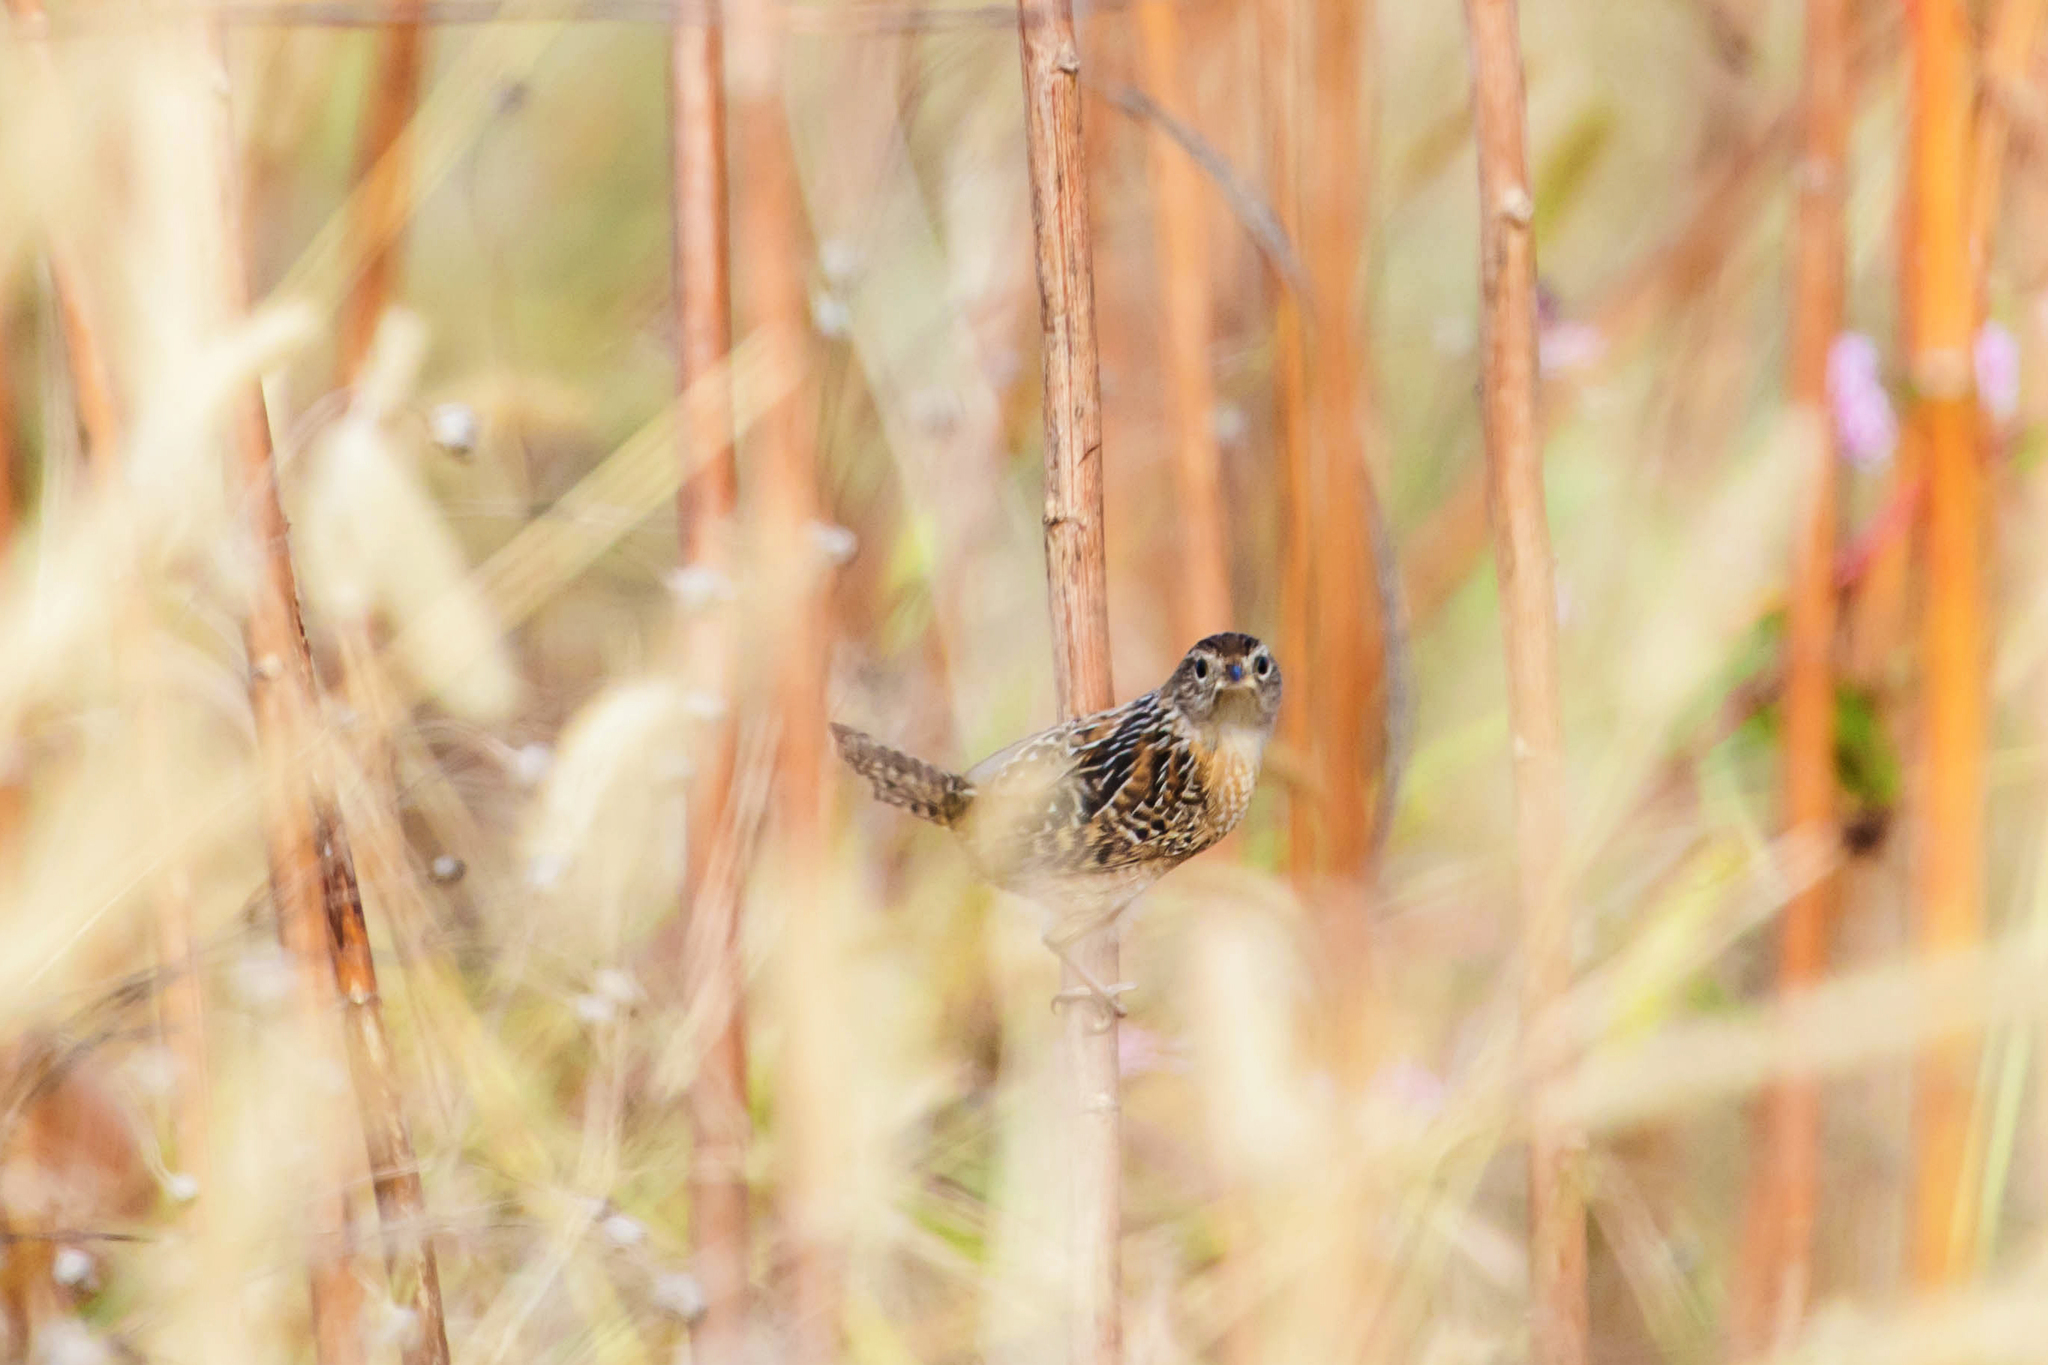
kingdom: Animalia
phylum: Chordata
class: Aves
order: Passeriformes
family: Troglodytidae
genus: Cistothorus
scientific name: Cistothorus platensis
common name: Sedge wren
